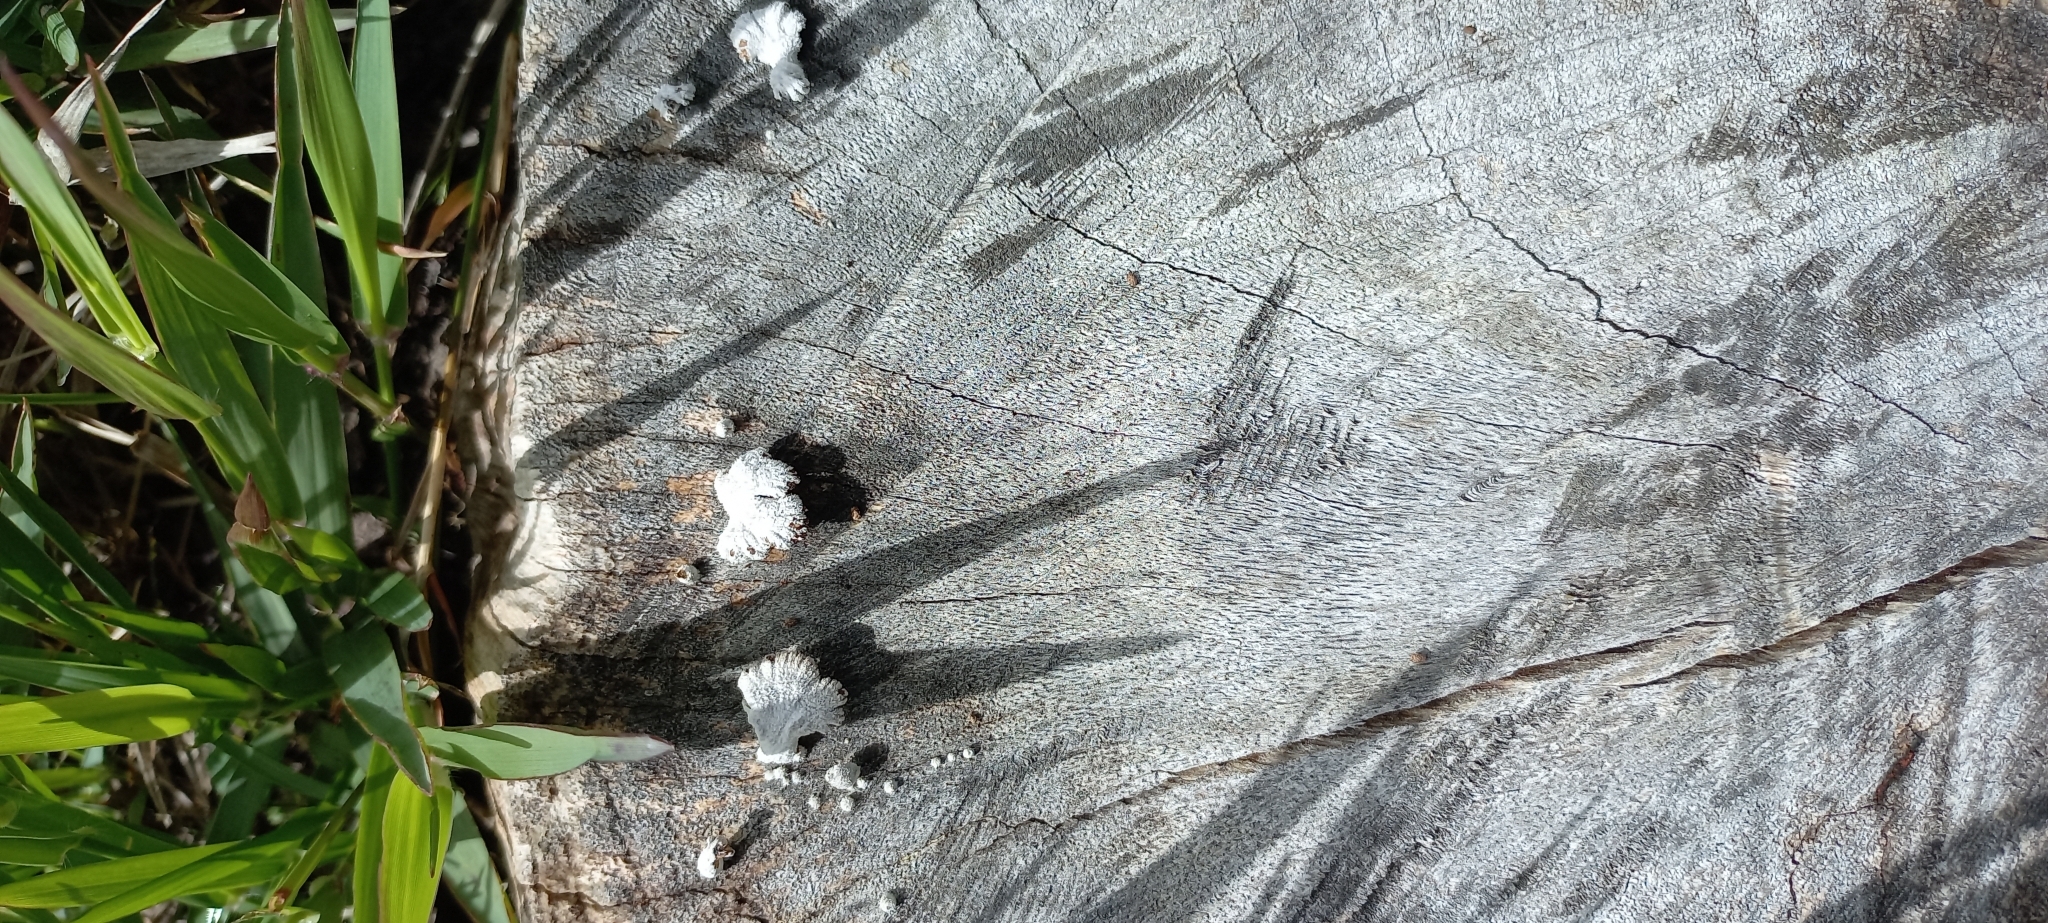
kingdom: Fungi
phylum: Basidiomycota
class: Agaricomycetes
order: Agaricales
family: Schizophyllaceae
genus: Schizophyllum
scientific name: Schizophyllum commune
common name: Common porecrust
